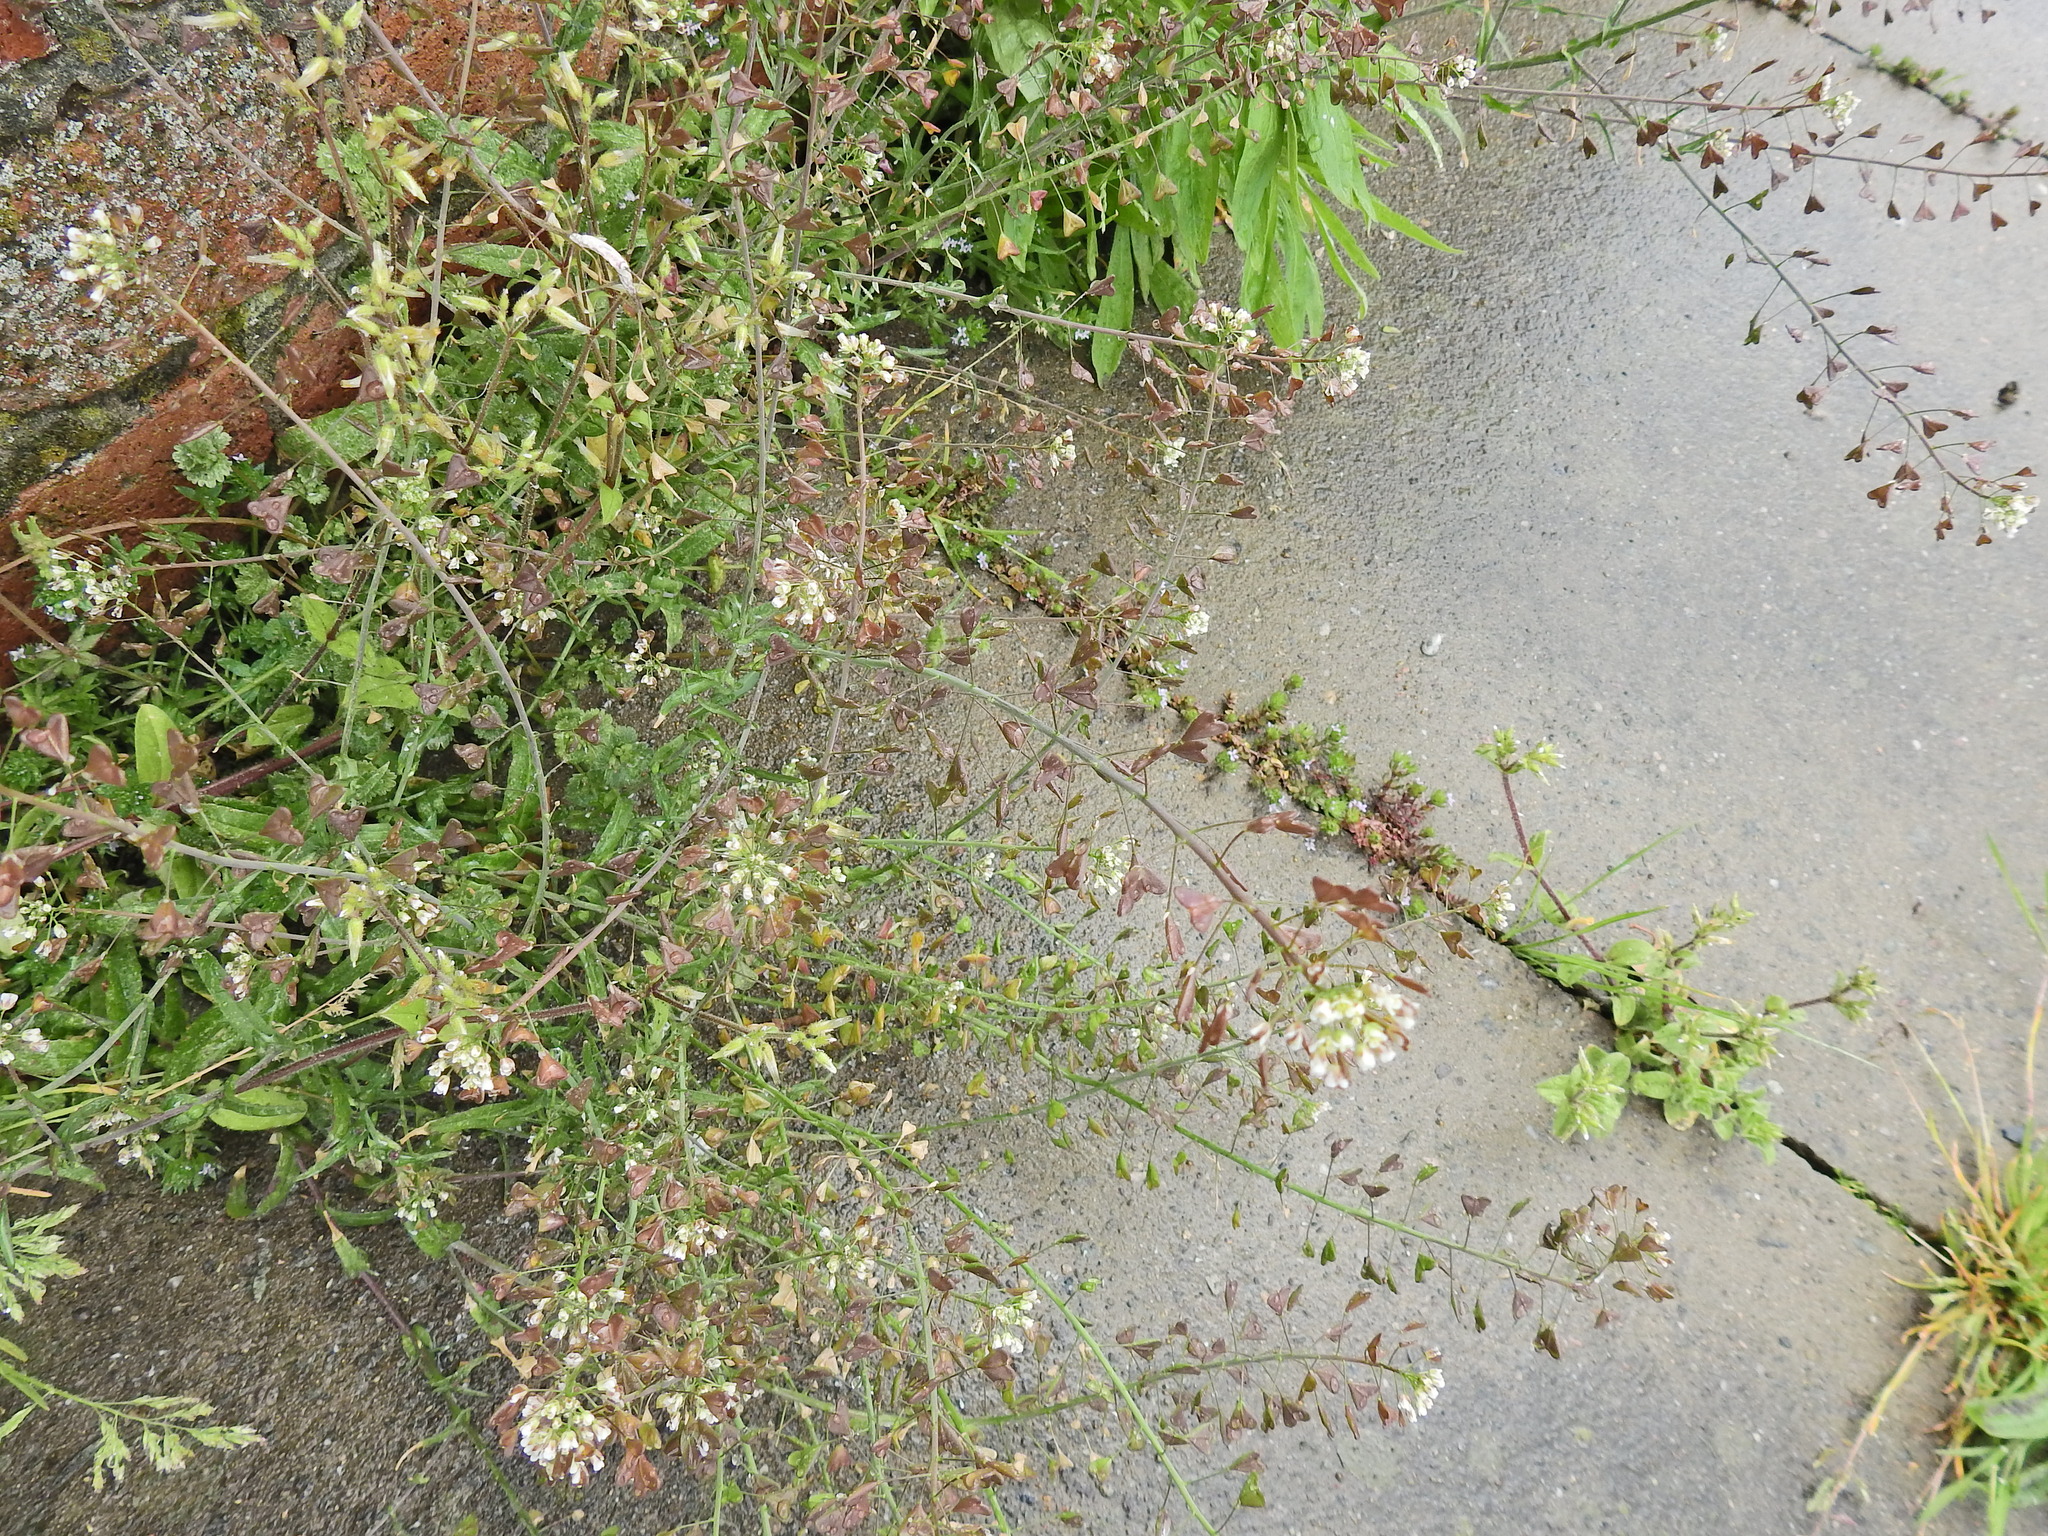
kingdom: Plantae
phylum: Tracheophyta
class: Magnoliopsida
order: Brassicales
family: Brassicaceae
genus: Capsella
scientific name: Capsella bursa-pastoris
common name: Shepherd's purse
